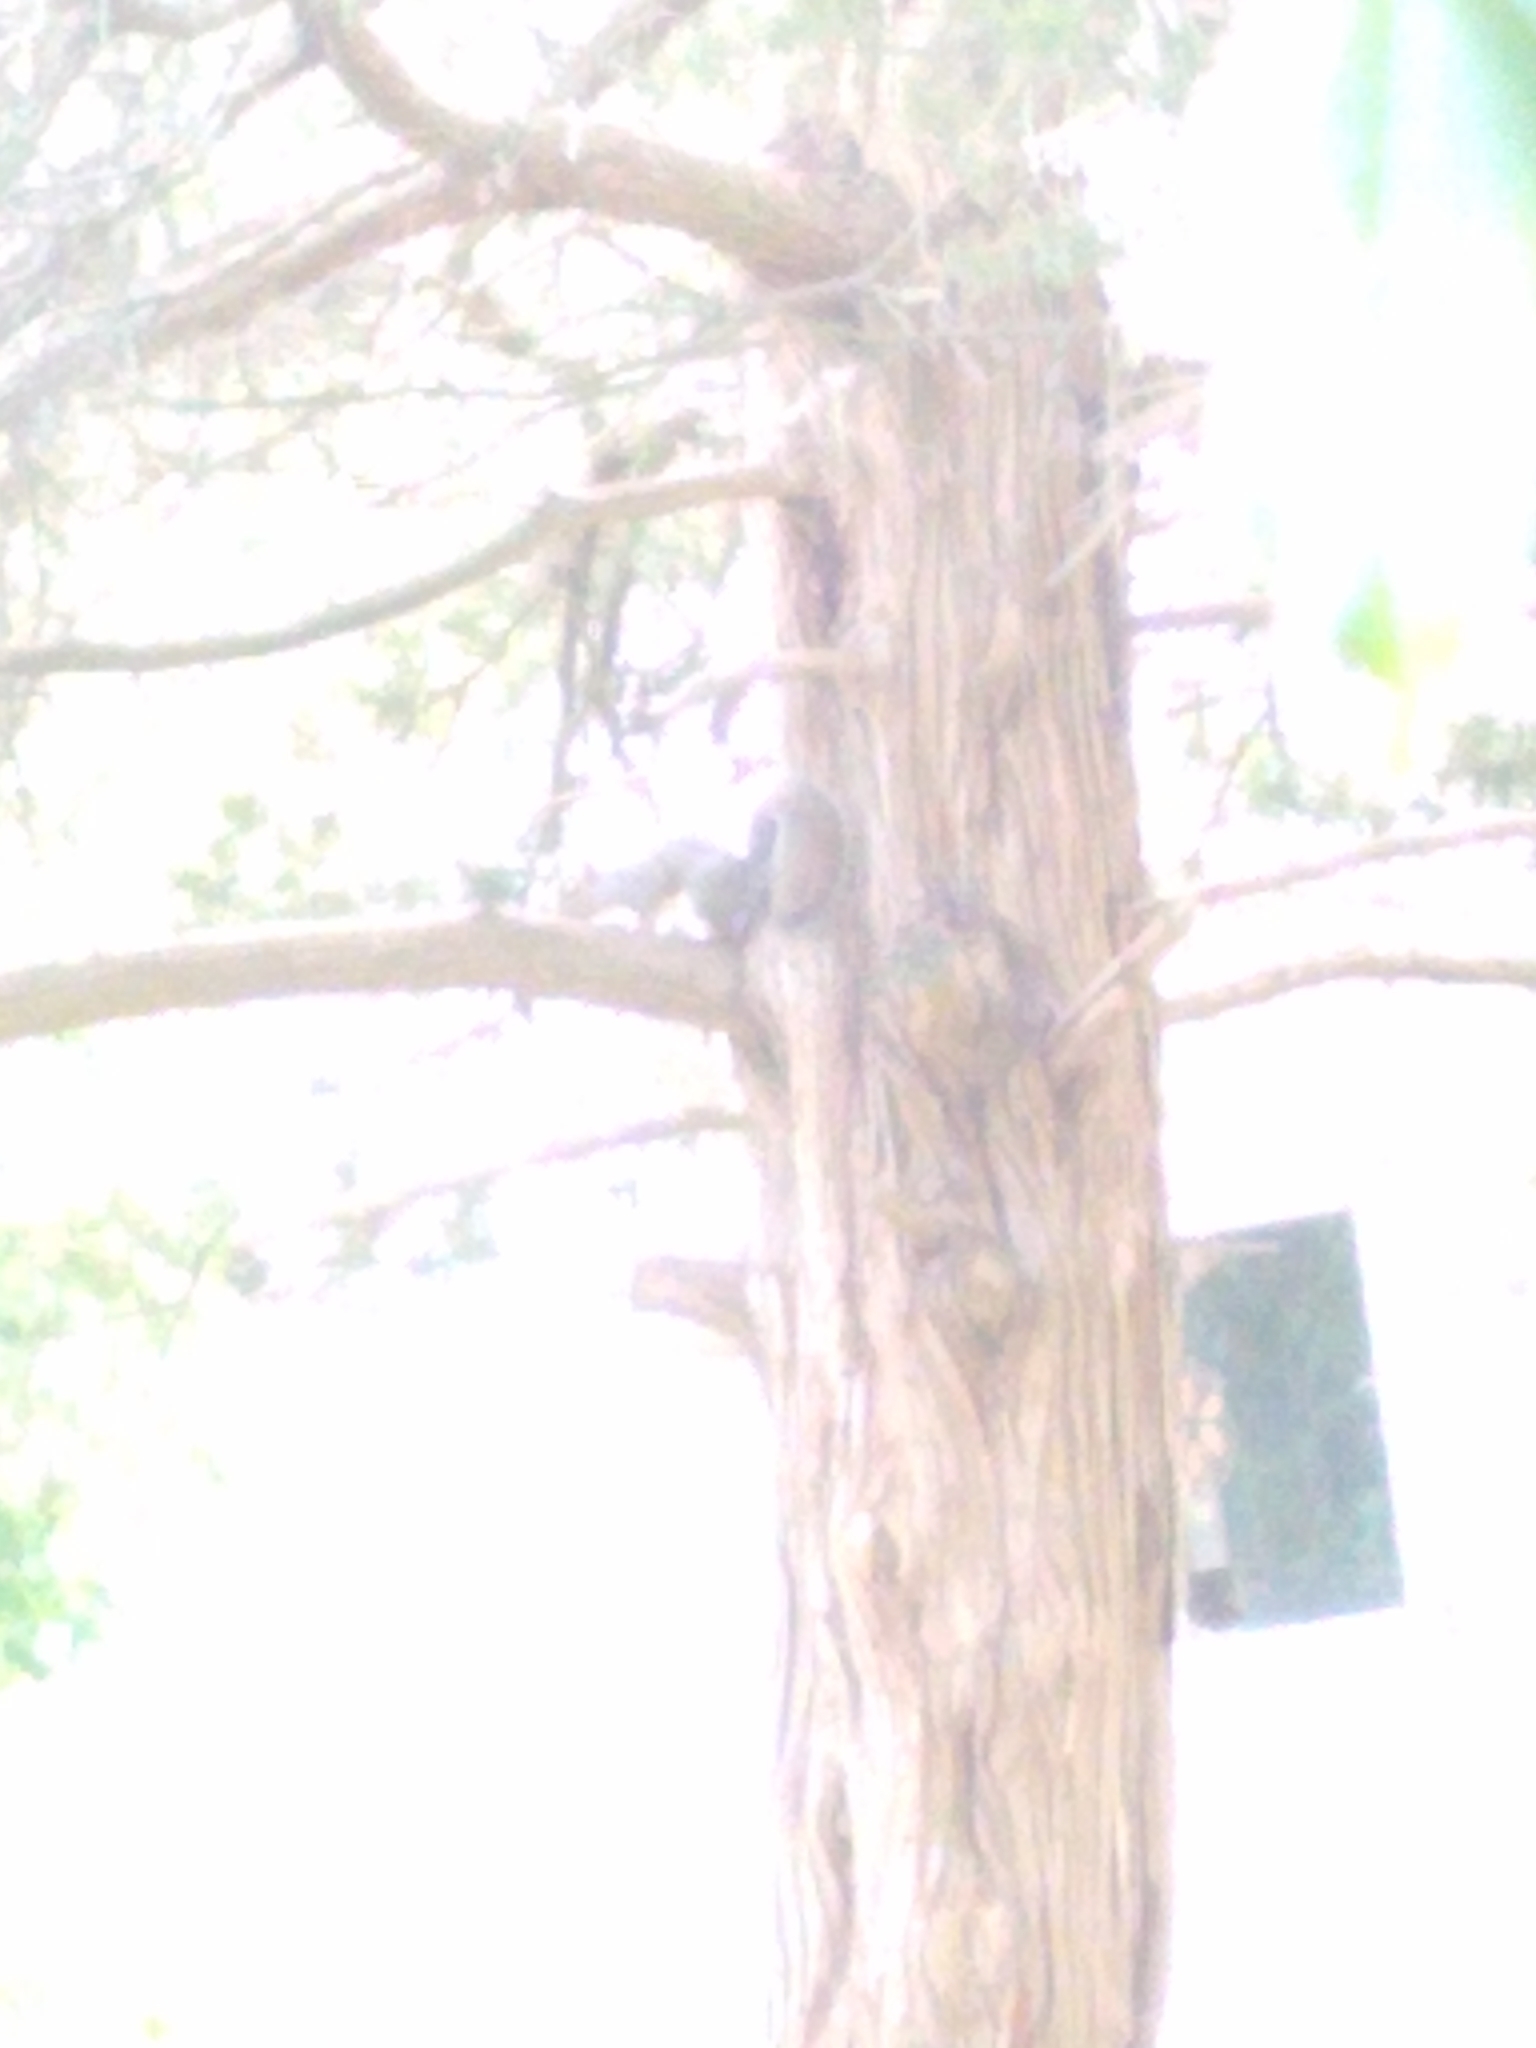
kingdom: Animalia
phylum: Chordata
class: Mammalia
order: Rodentia
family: Sciuridae
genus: Sciurus
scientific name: Sciurus carolinensis
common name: Eastern gray squirrel
